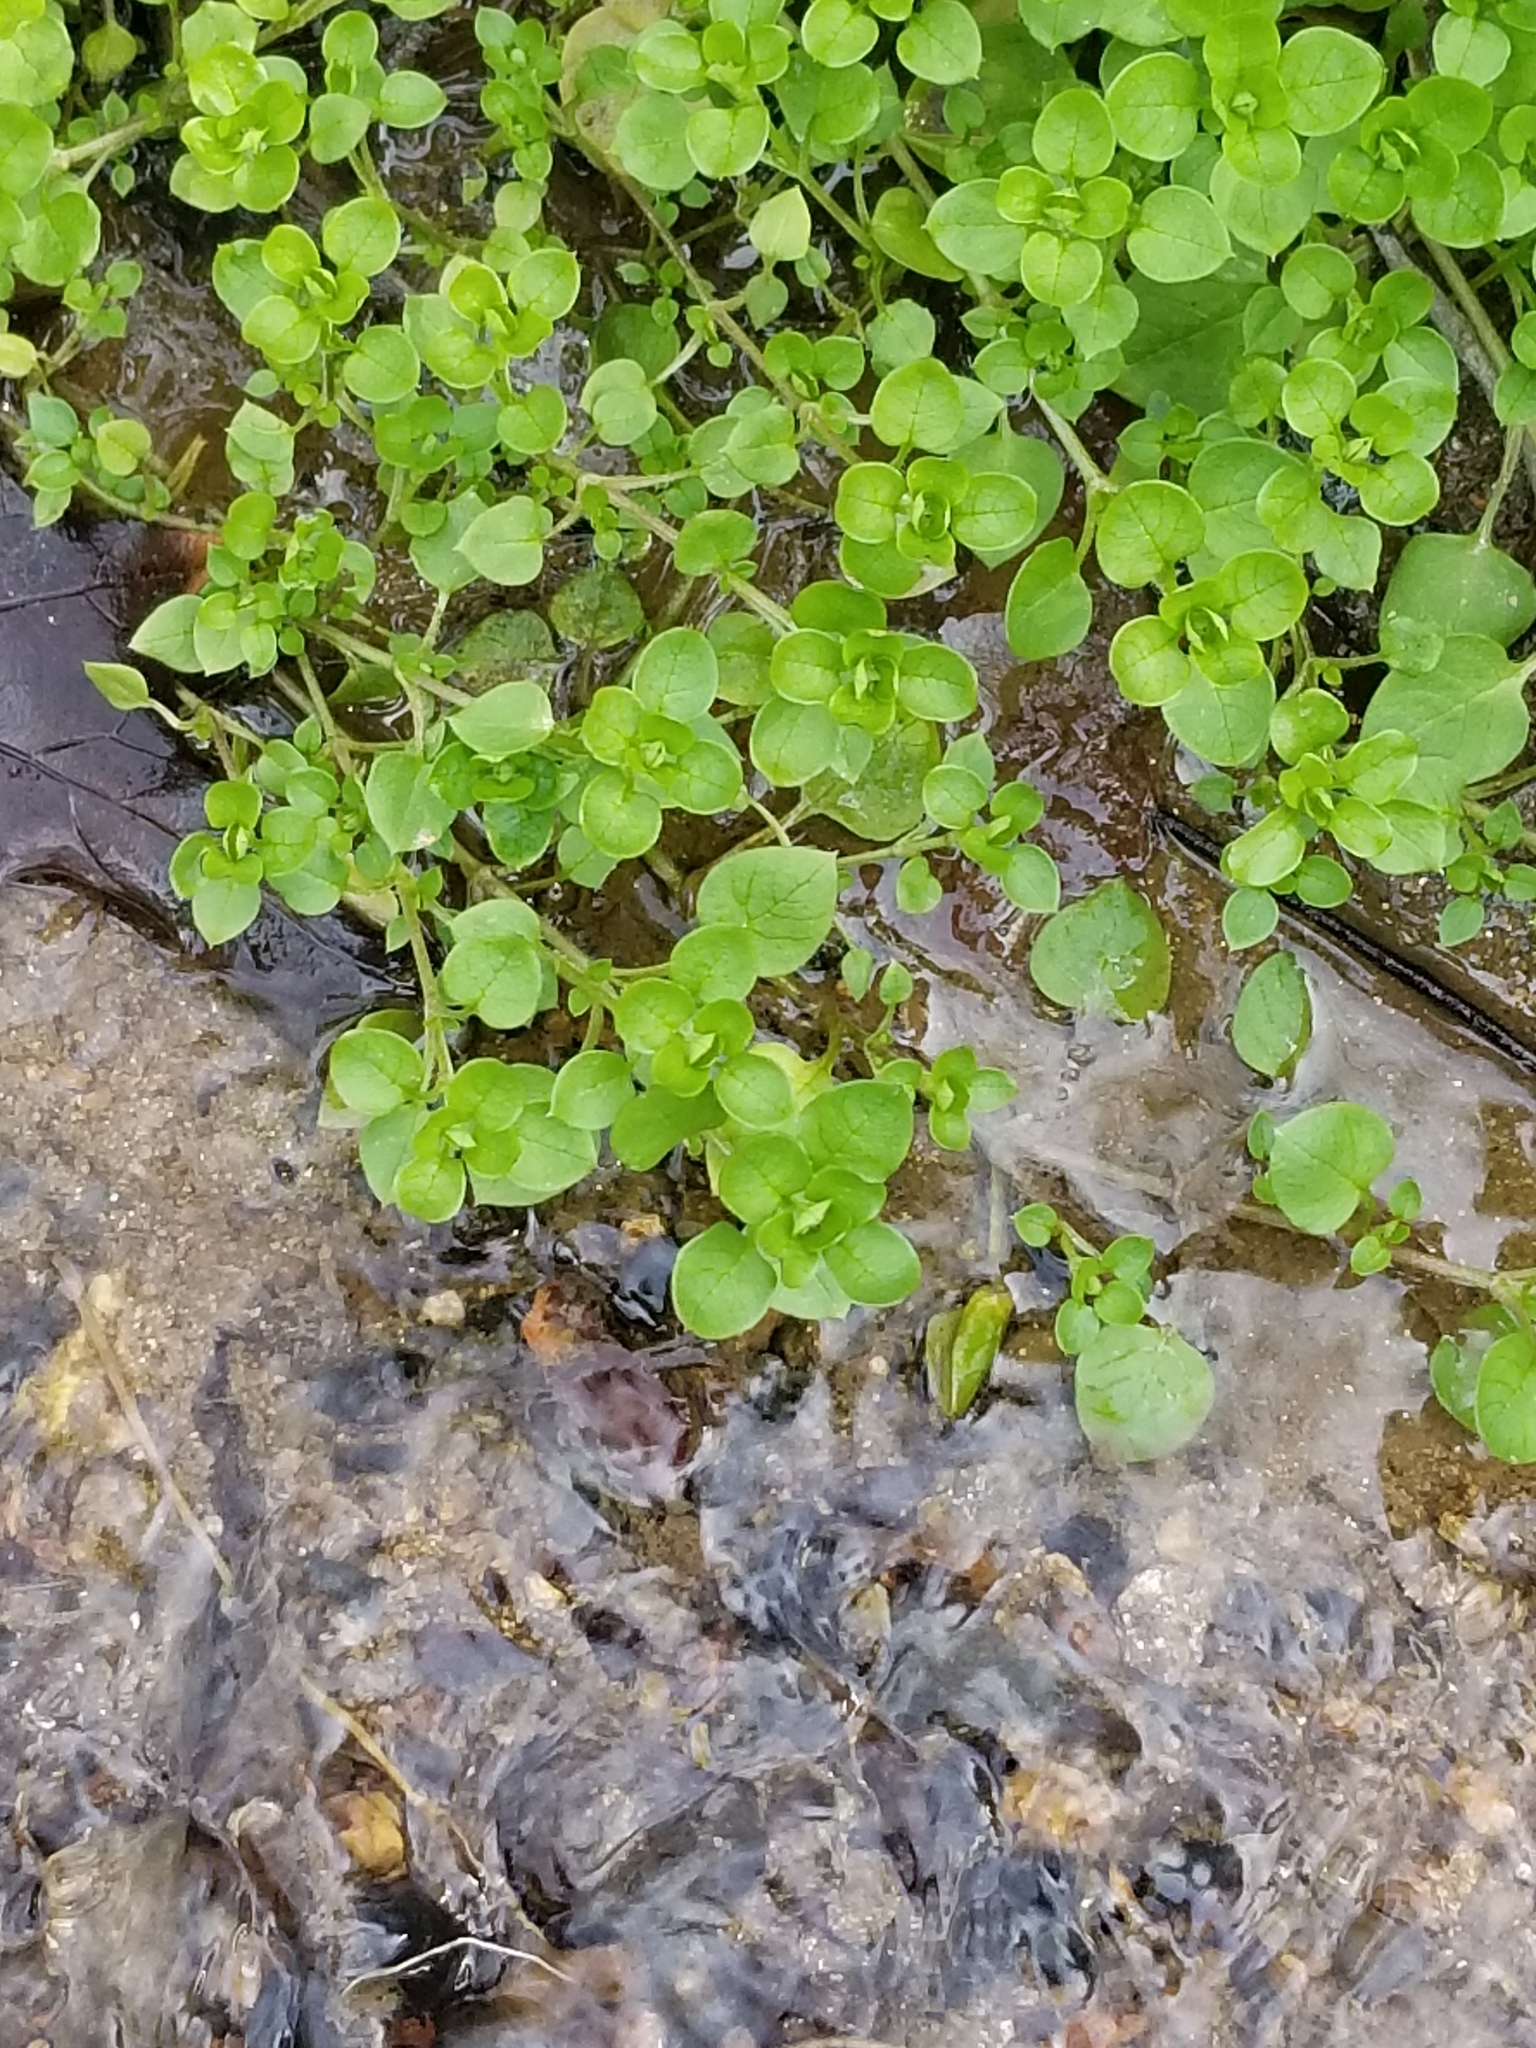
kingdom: Plantae
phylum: Tracheophyta
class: Magnoliopsida
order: Caryophyllales
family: Caryophyllaceae
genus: Stellaria
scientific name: Stellaria media
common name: Common chickweed
